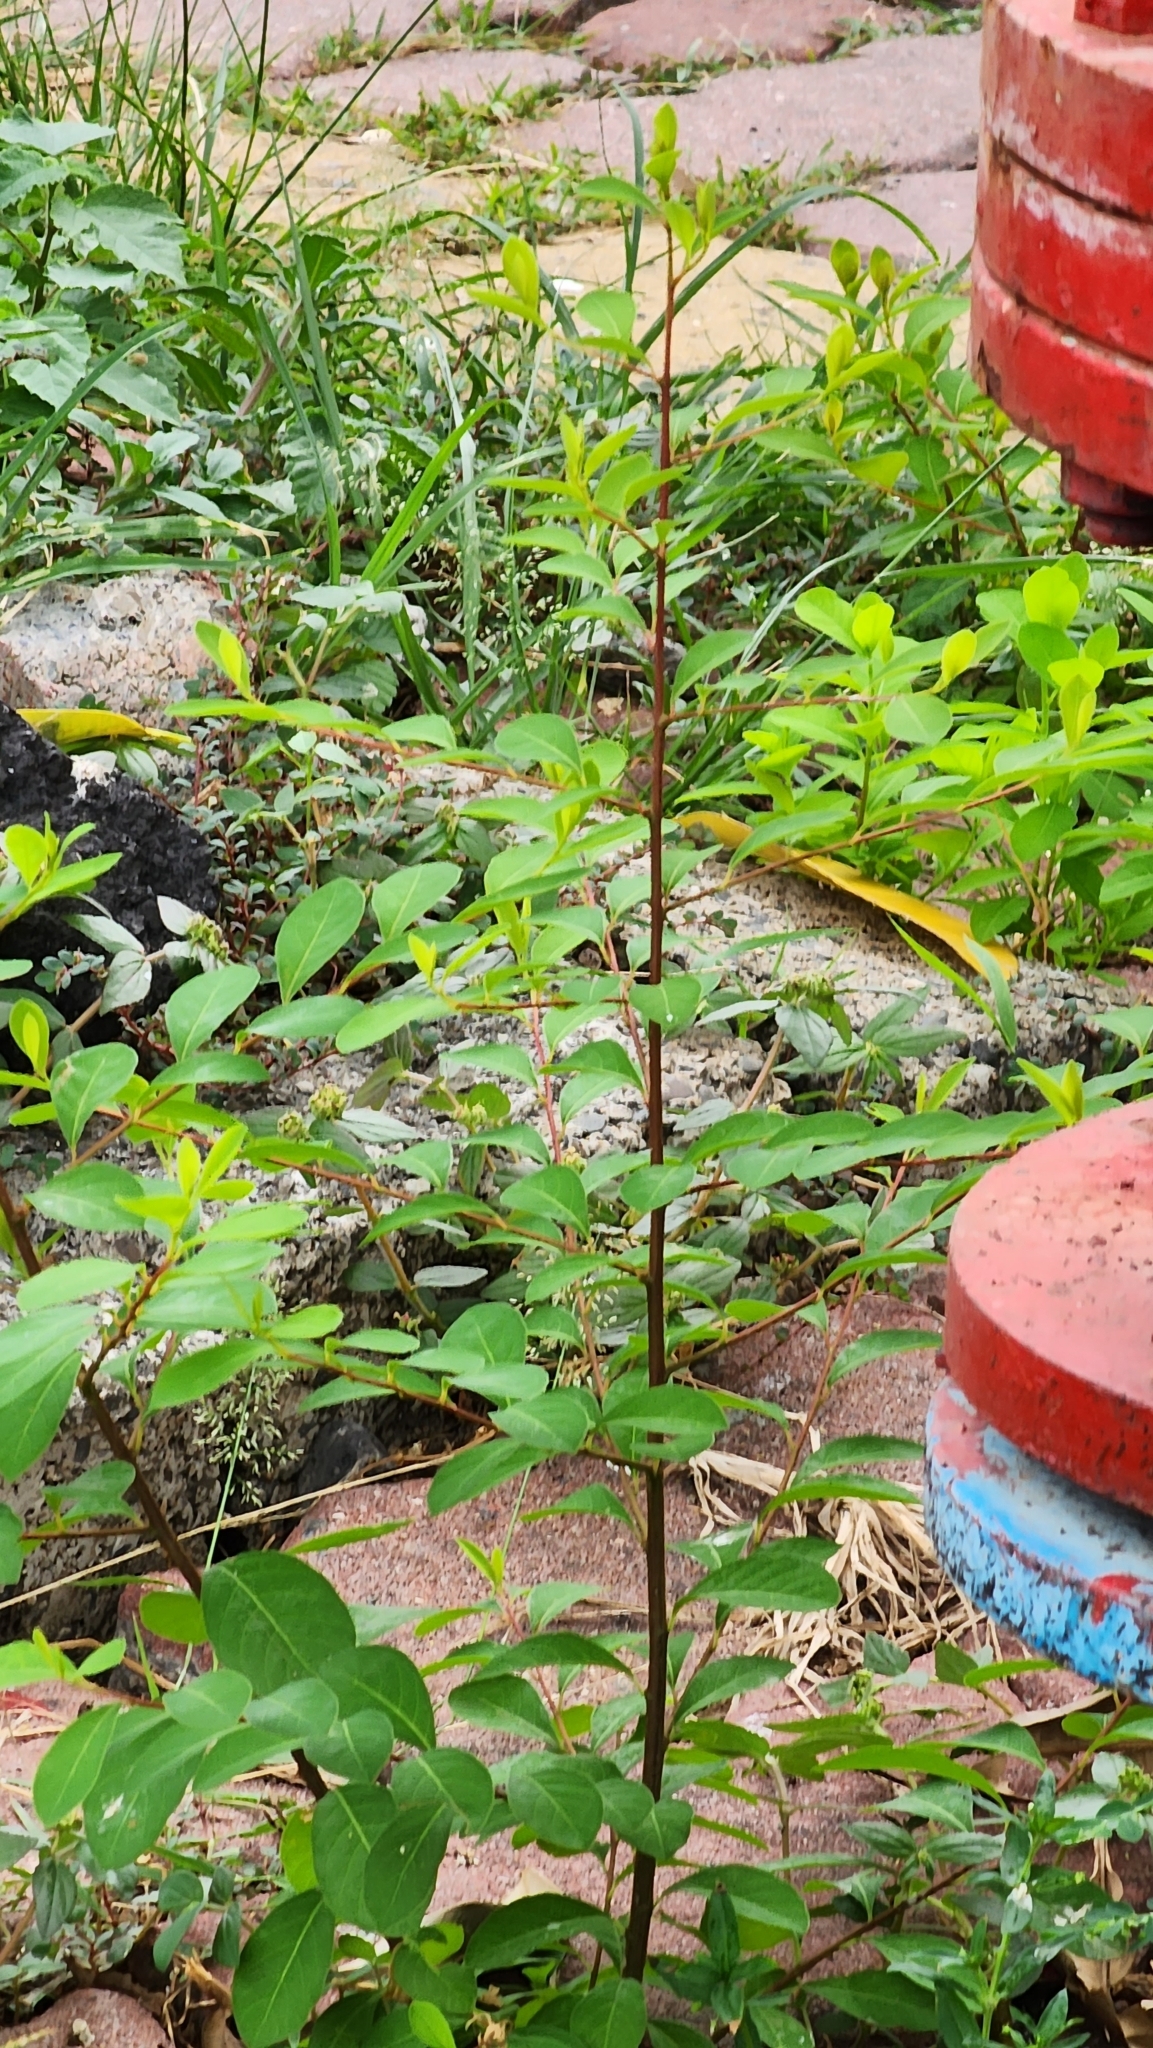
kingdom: Plantae
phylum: Tracheophyta
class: Magnoliopsida
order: Malpighiales
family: Phyllanthaceae
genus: Flueggea
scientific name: Flueggea virosa
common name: Common bushweed
